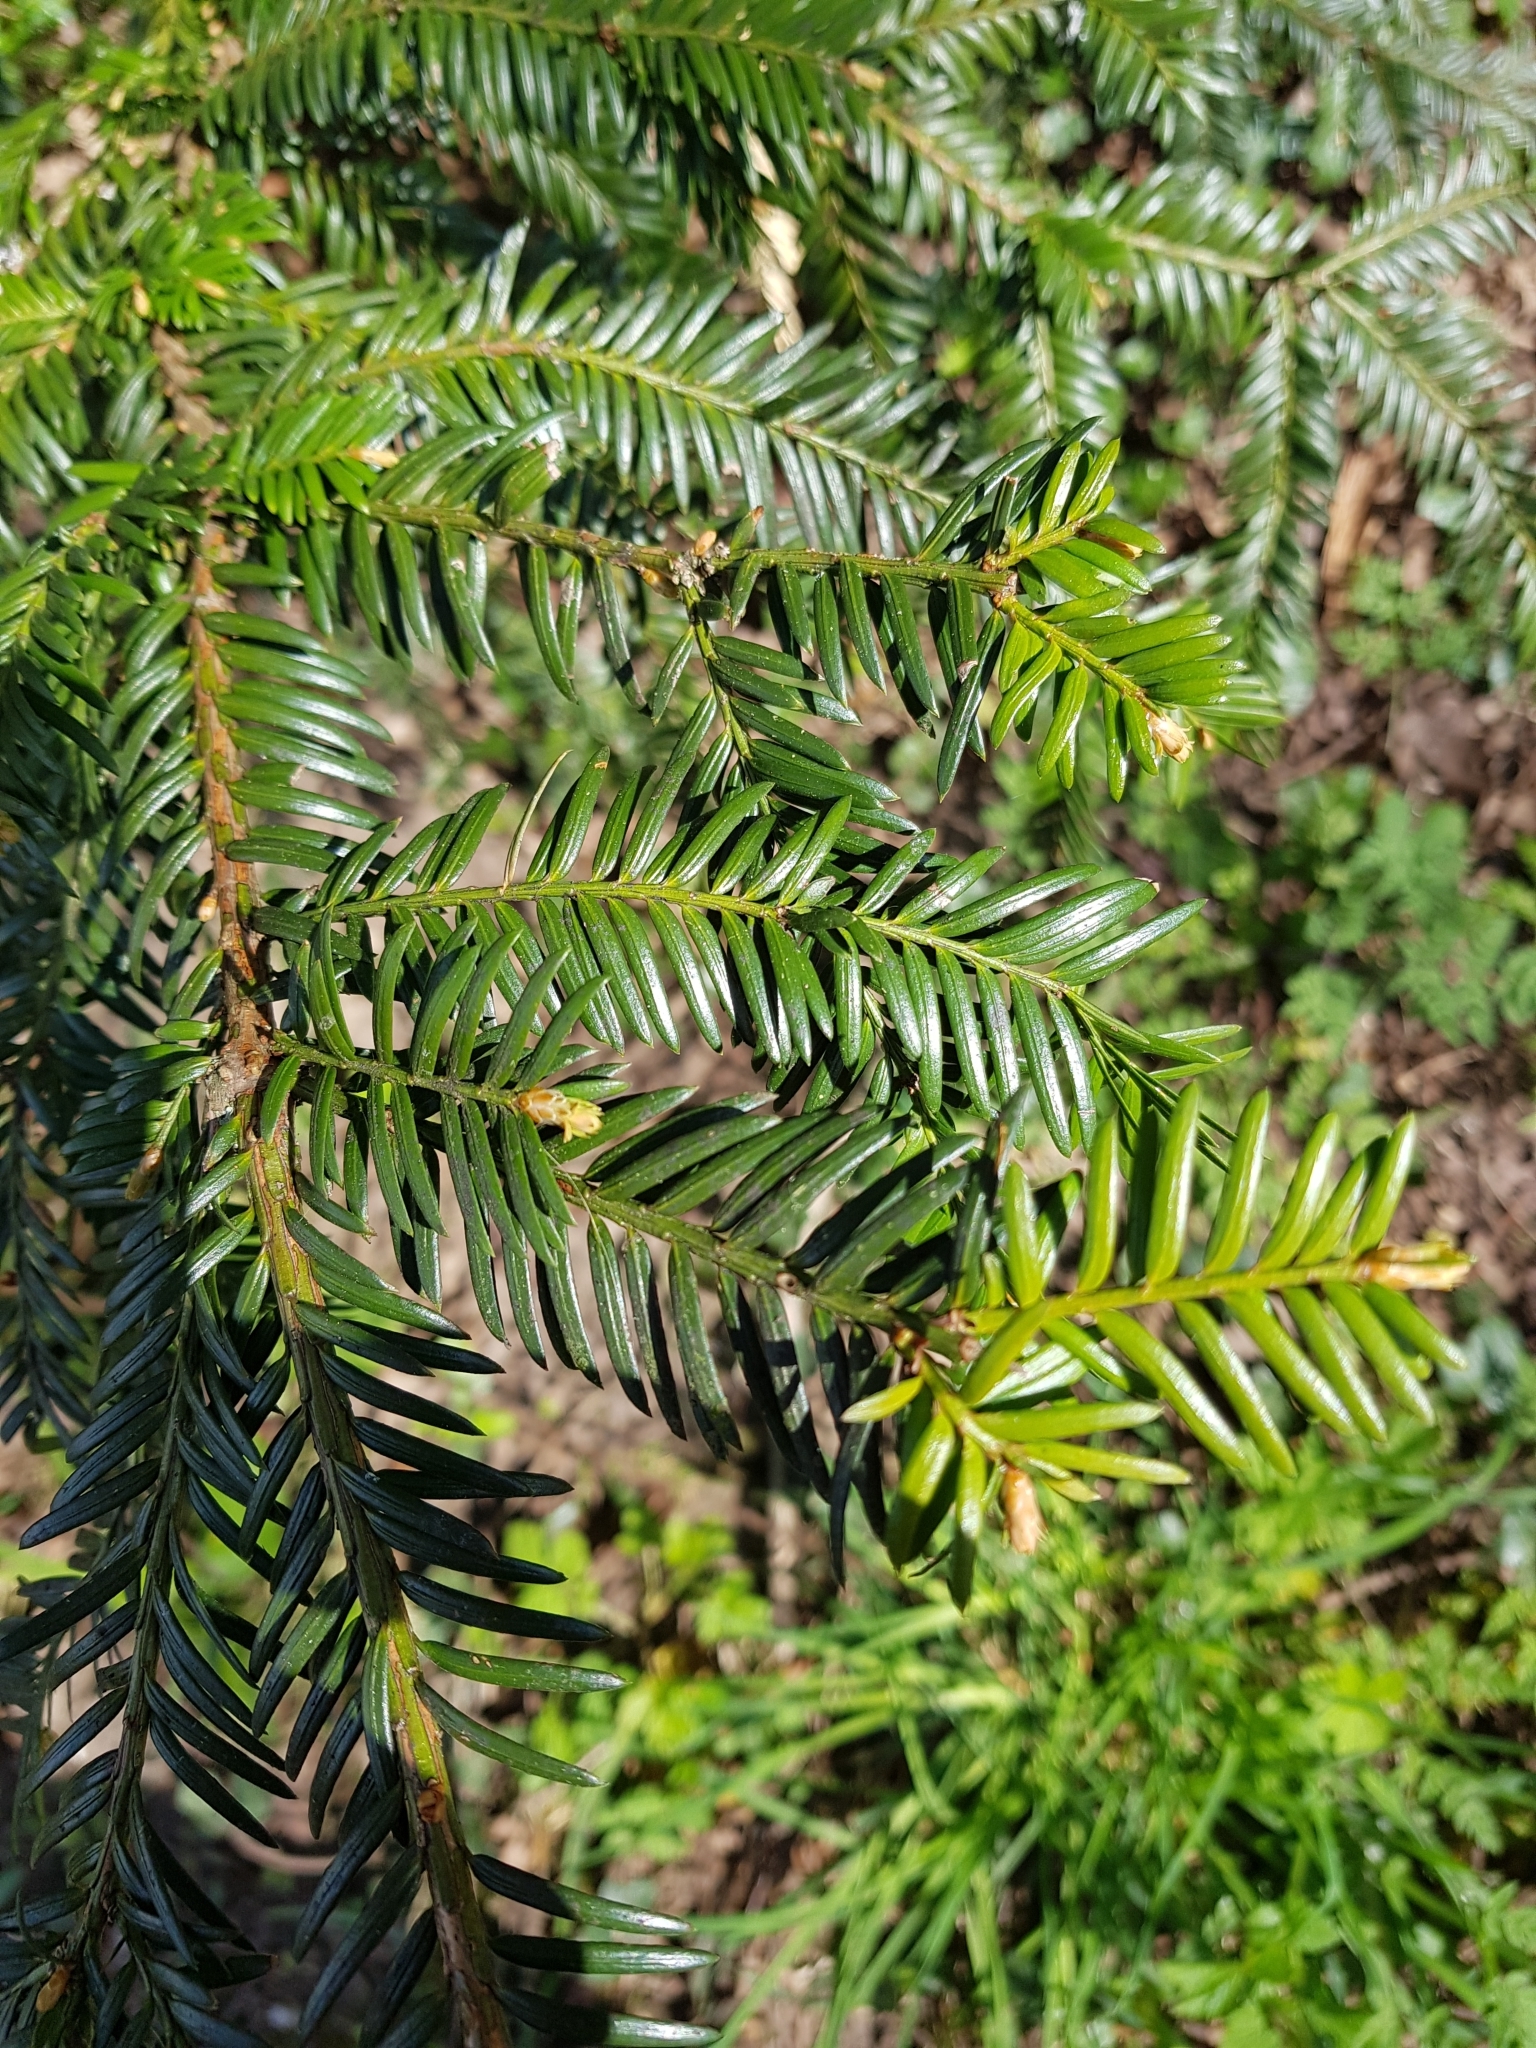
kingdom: Plantae
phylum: Tracheophyta
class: Pinopsida
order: Pinales
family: Taxaceae
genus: Taxus
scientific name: Taxus baccata
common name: Yew
